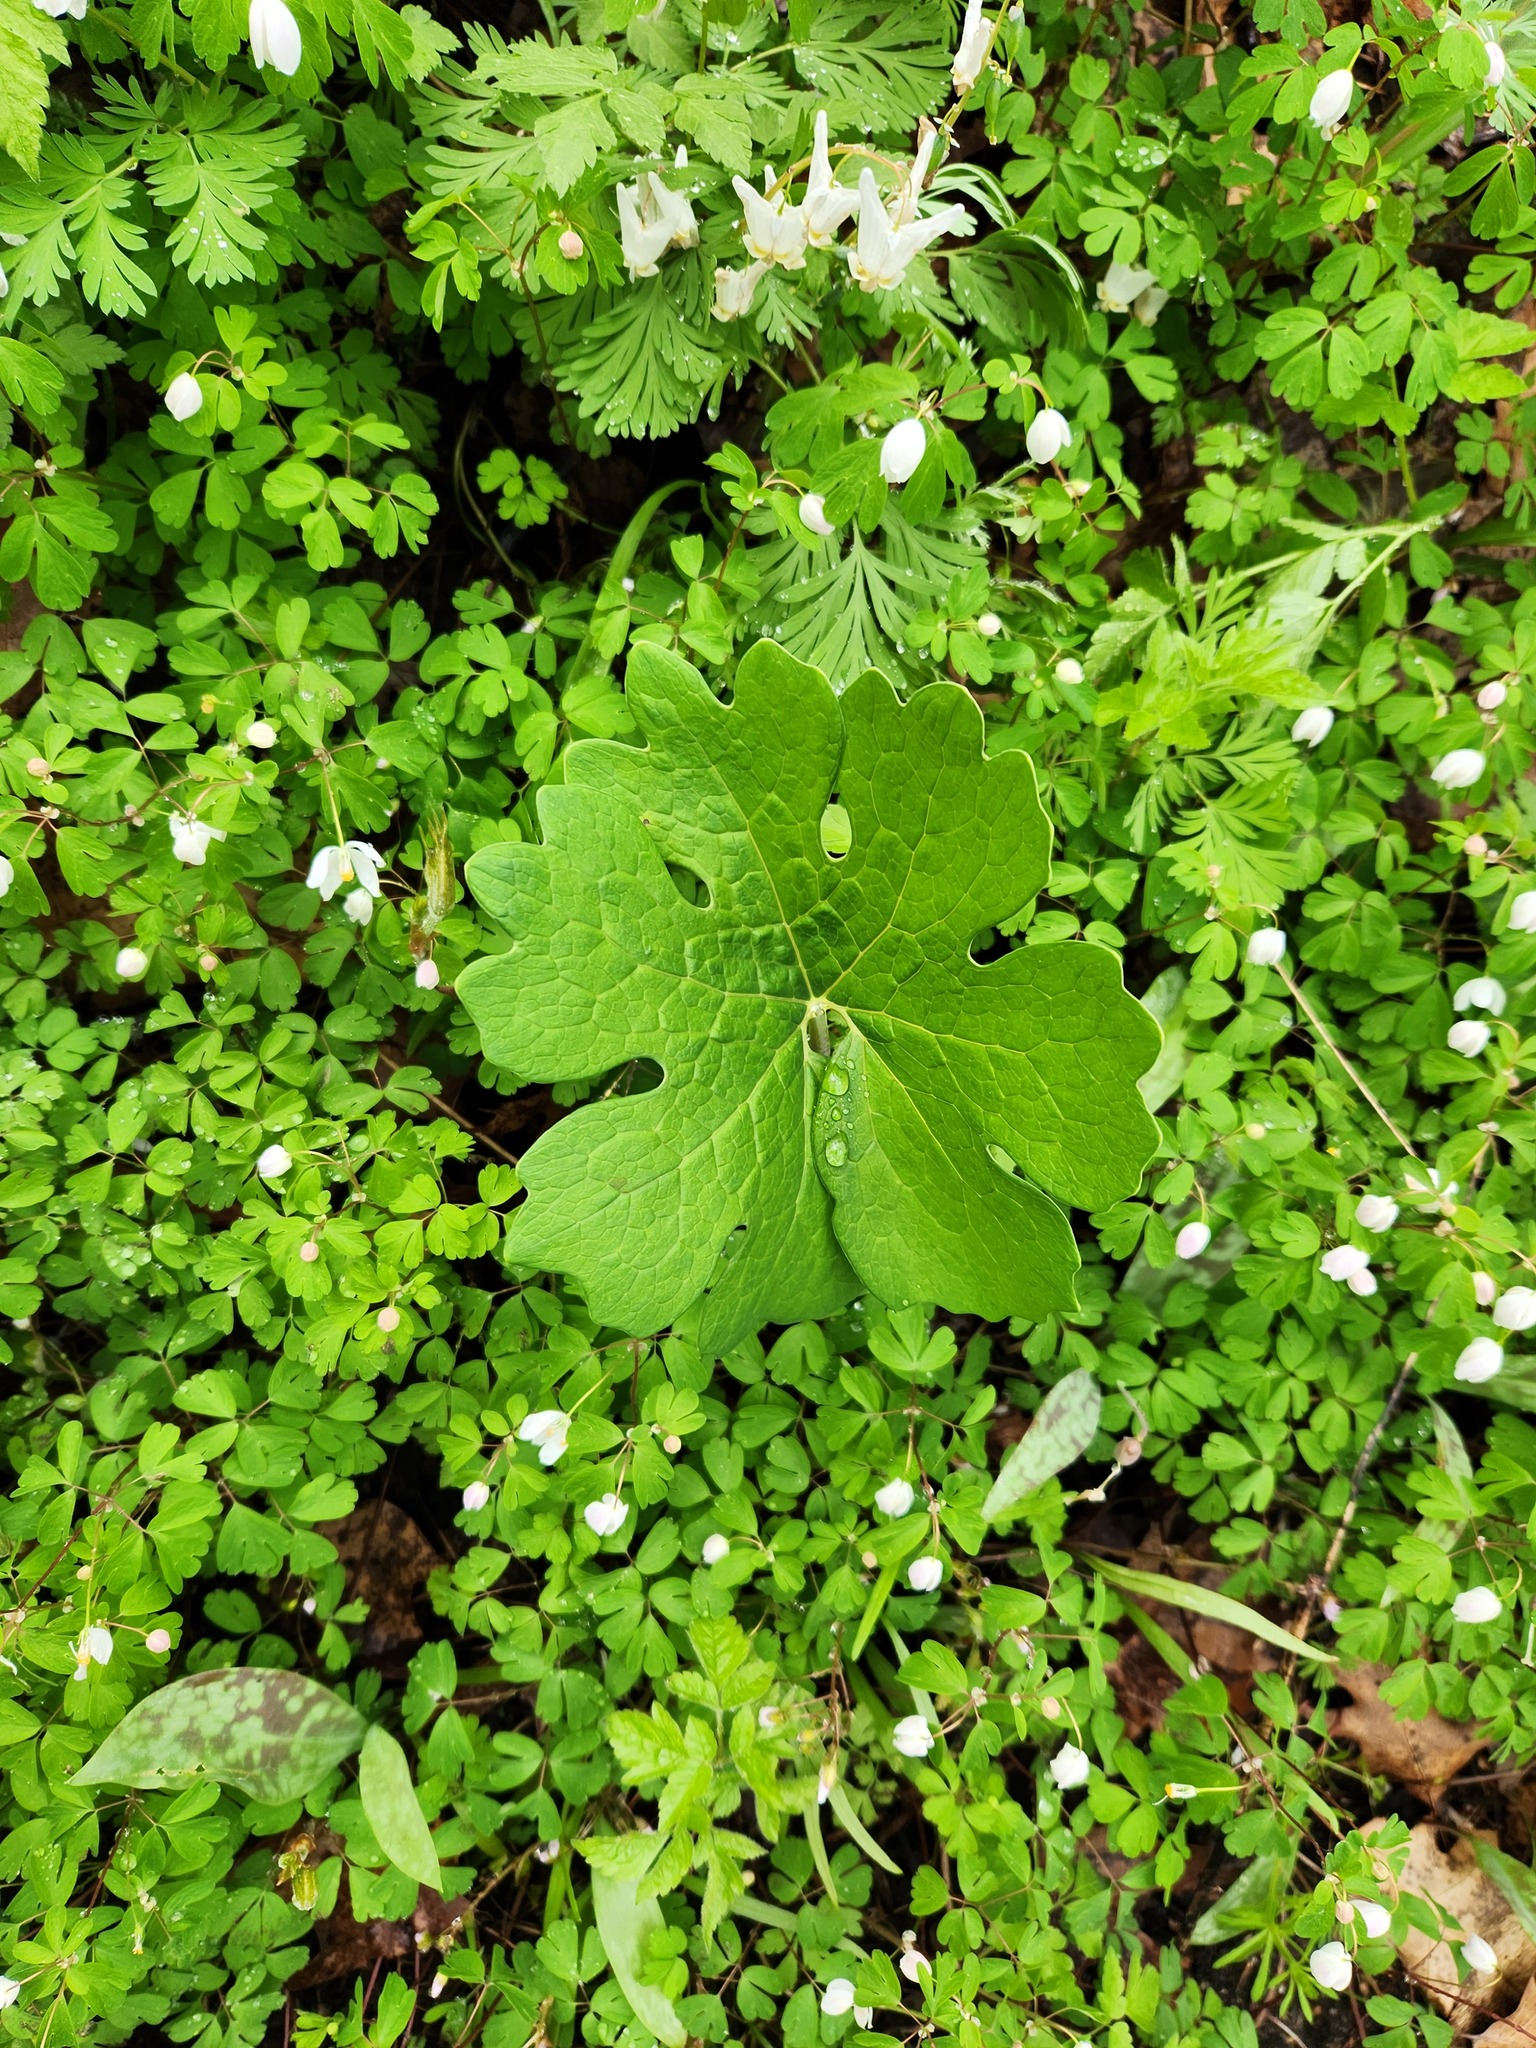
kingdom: Plantae
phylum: Tracheophyta
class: Magnoliopsida
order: Ranunculales
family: Papaveraceae
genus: Sanguinaria
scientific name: Sanguinaria canadensis
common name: Bloodroot
